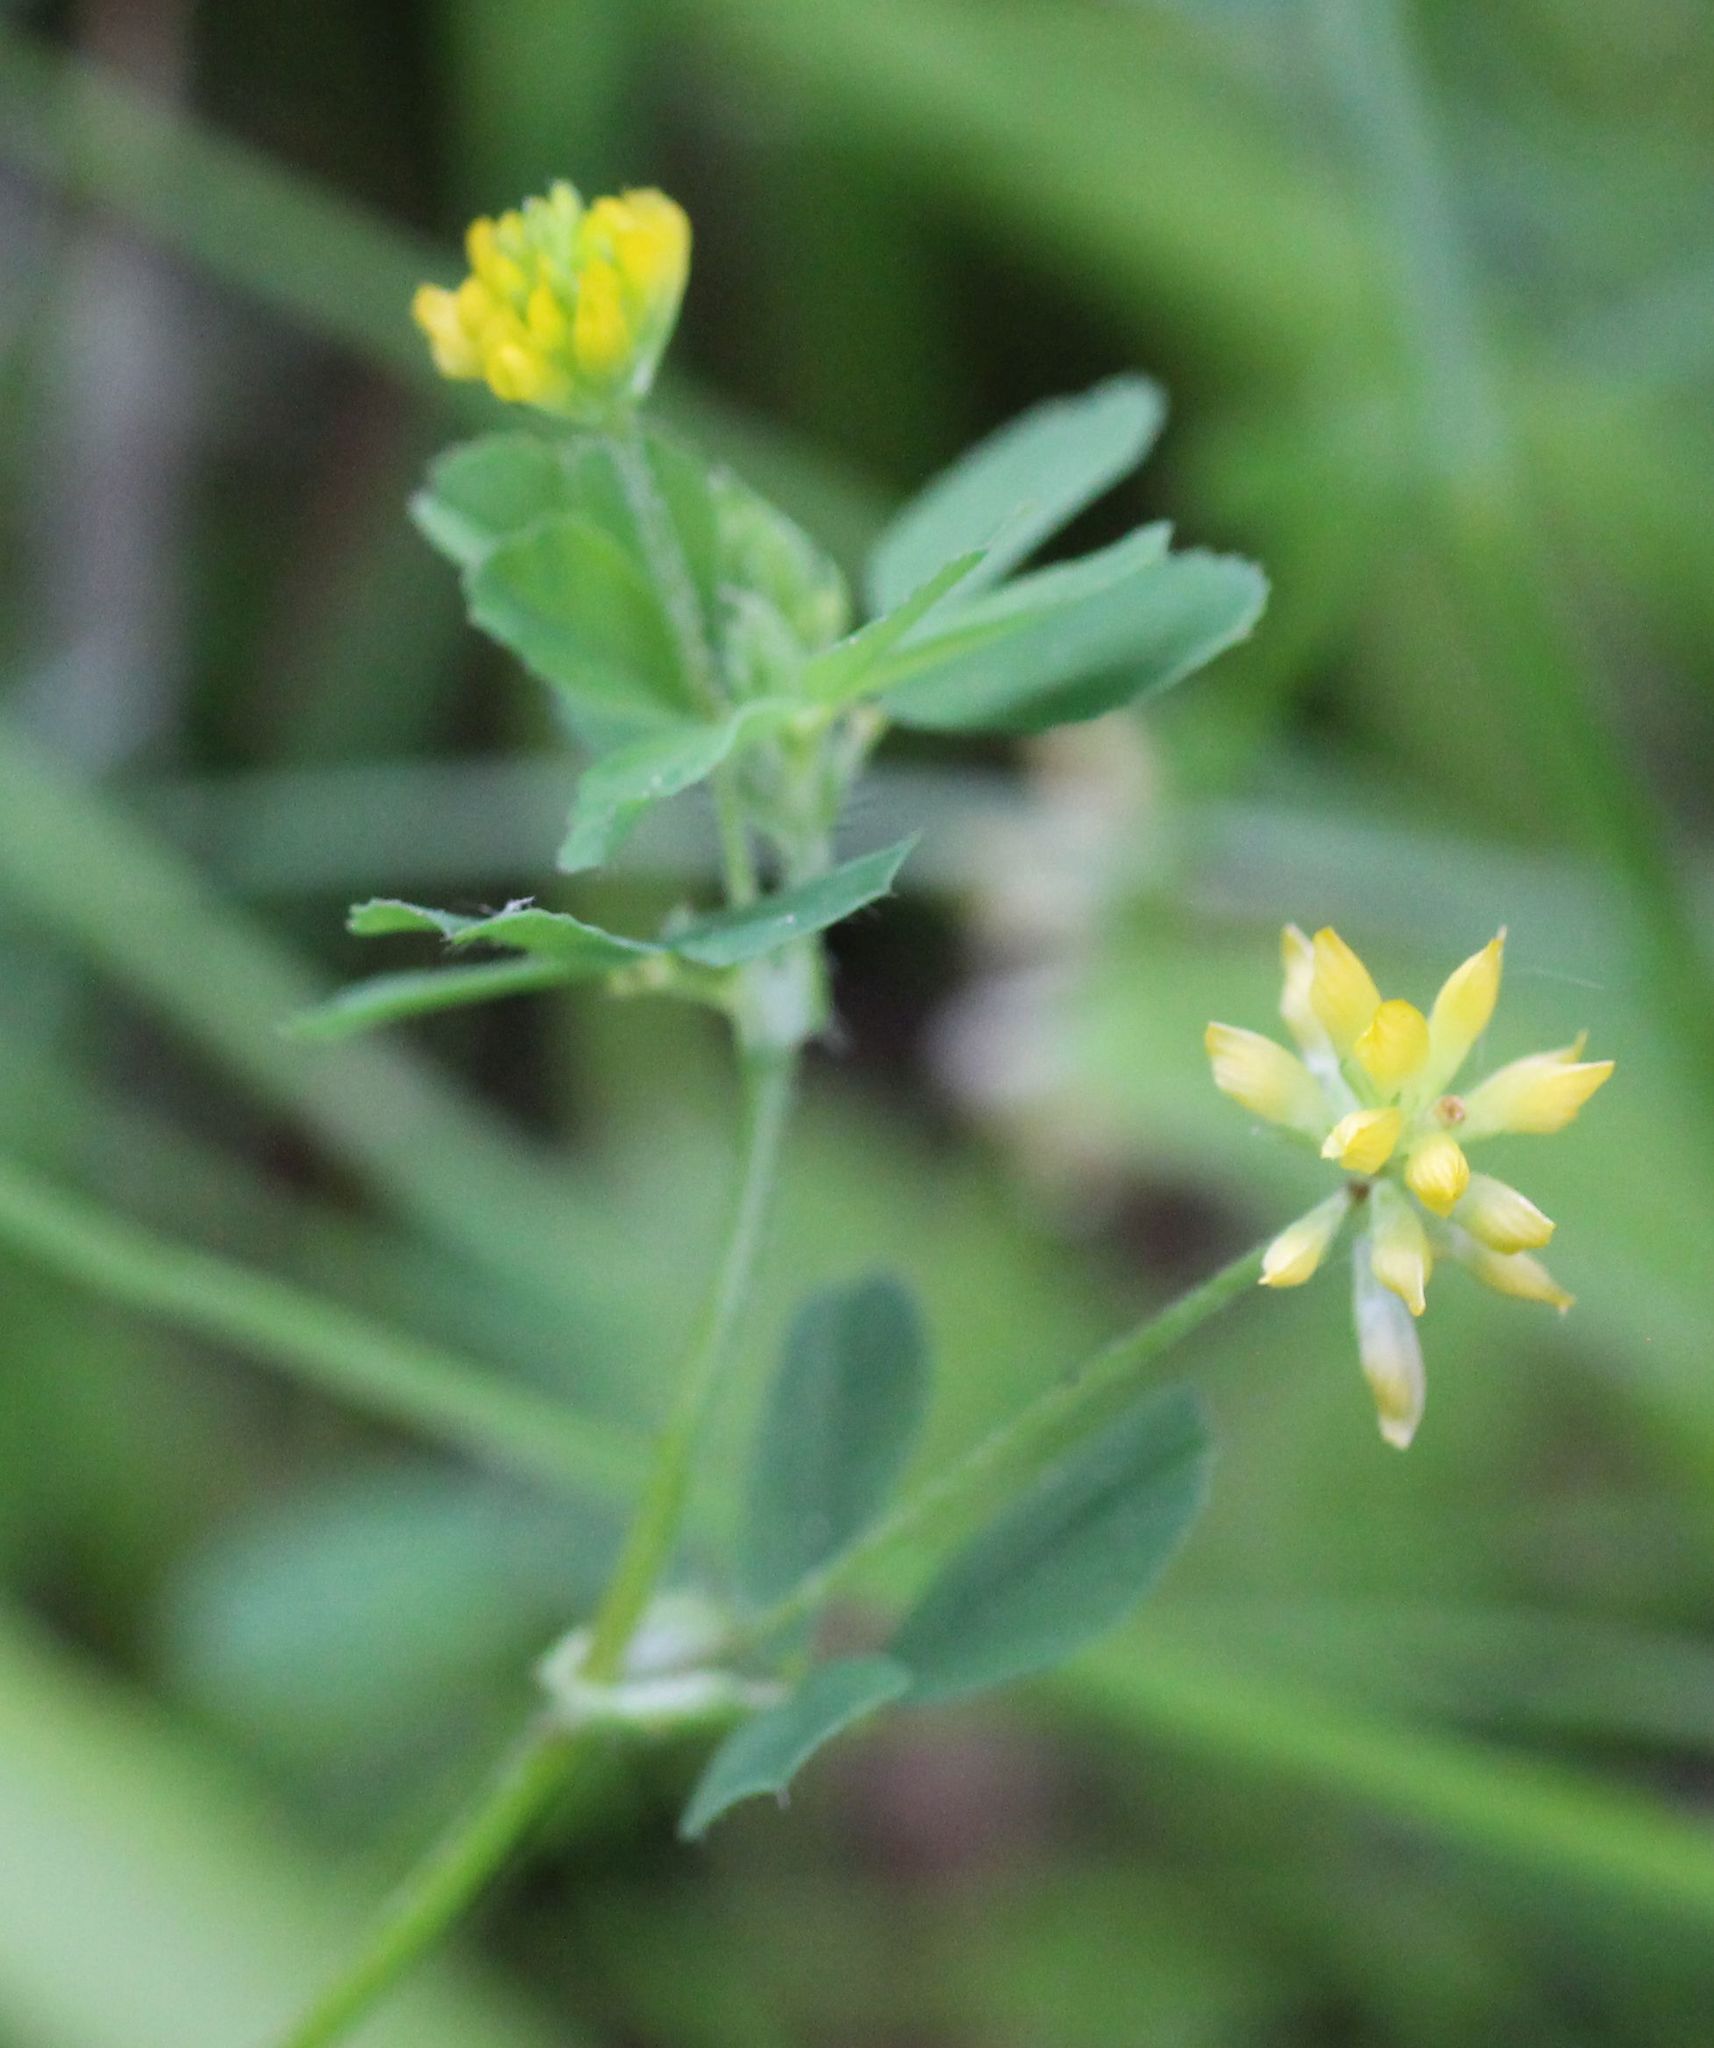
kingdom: Plantae
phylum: Tracheophyta
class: Magnoliopsida
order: Fabales
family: Fabaceae
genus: Trifolium
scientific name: Trifolium dubium
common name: Suckling clover
